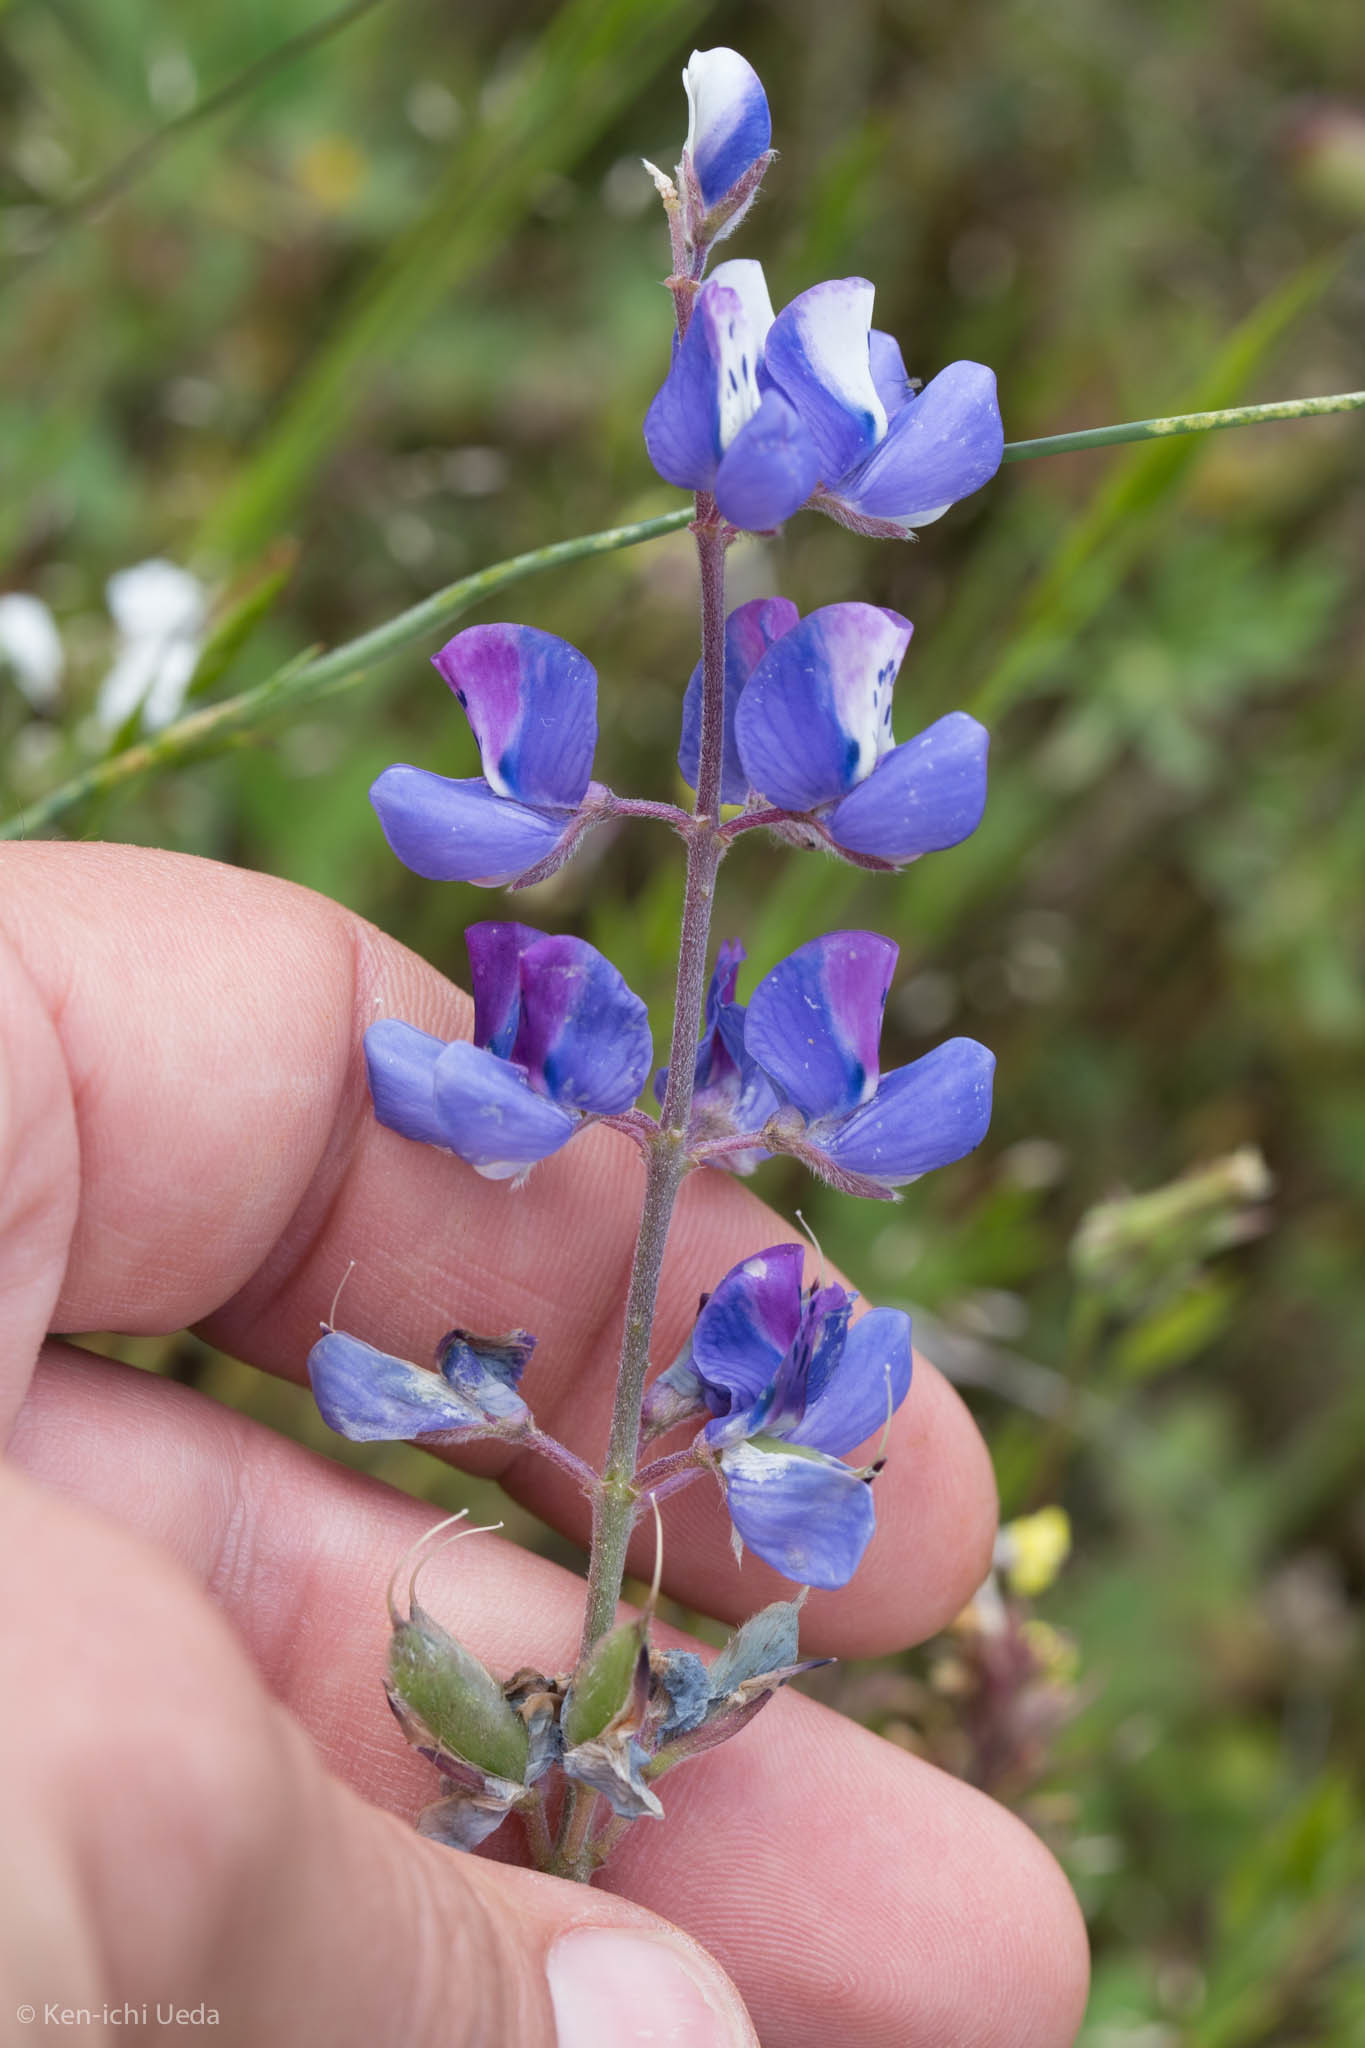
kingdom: Plantae
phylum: Tracheophyta
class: Magnoliopsida
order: Fabales
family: Fabaceae
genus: Lupinus
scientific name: Lupinus nanus
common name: Orean blue lupin
